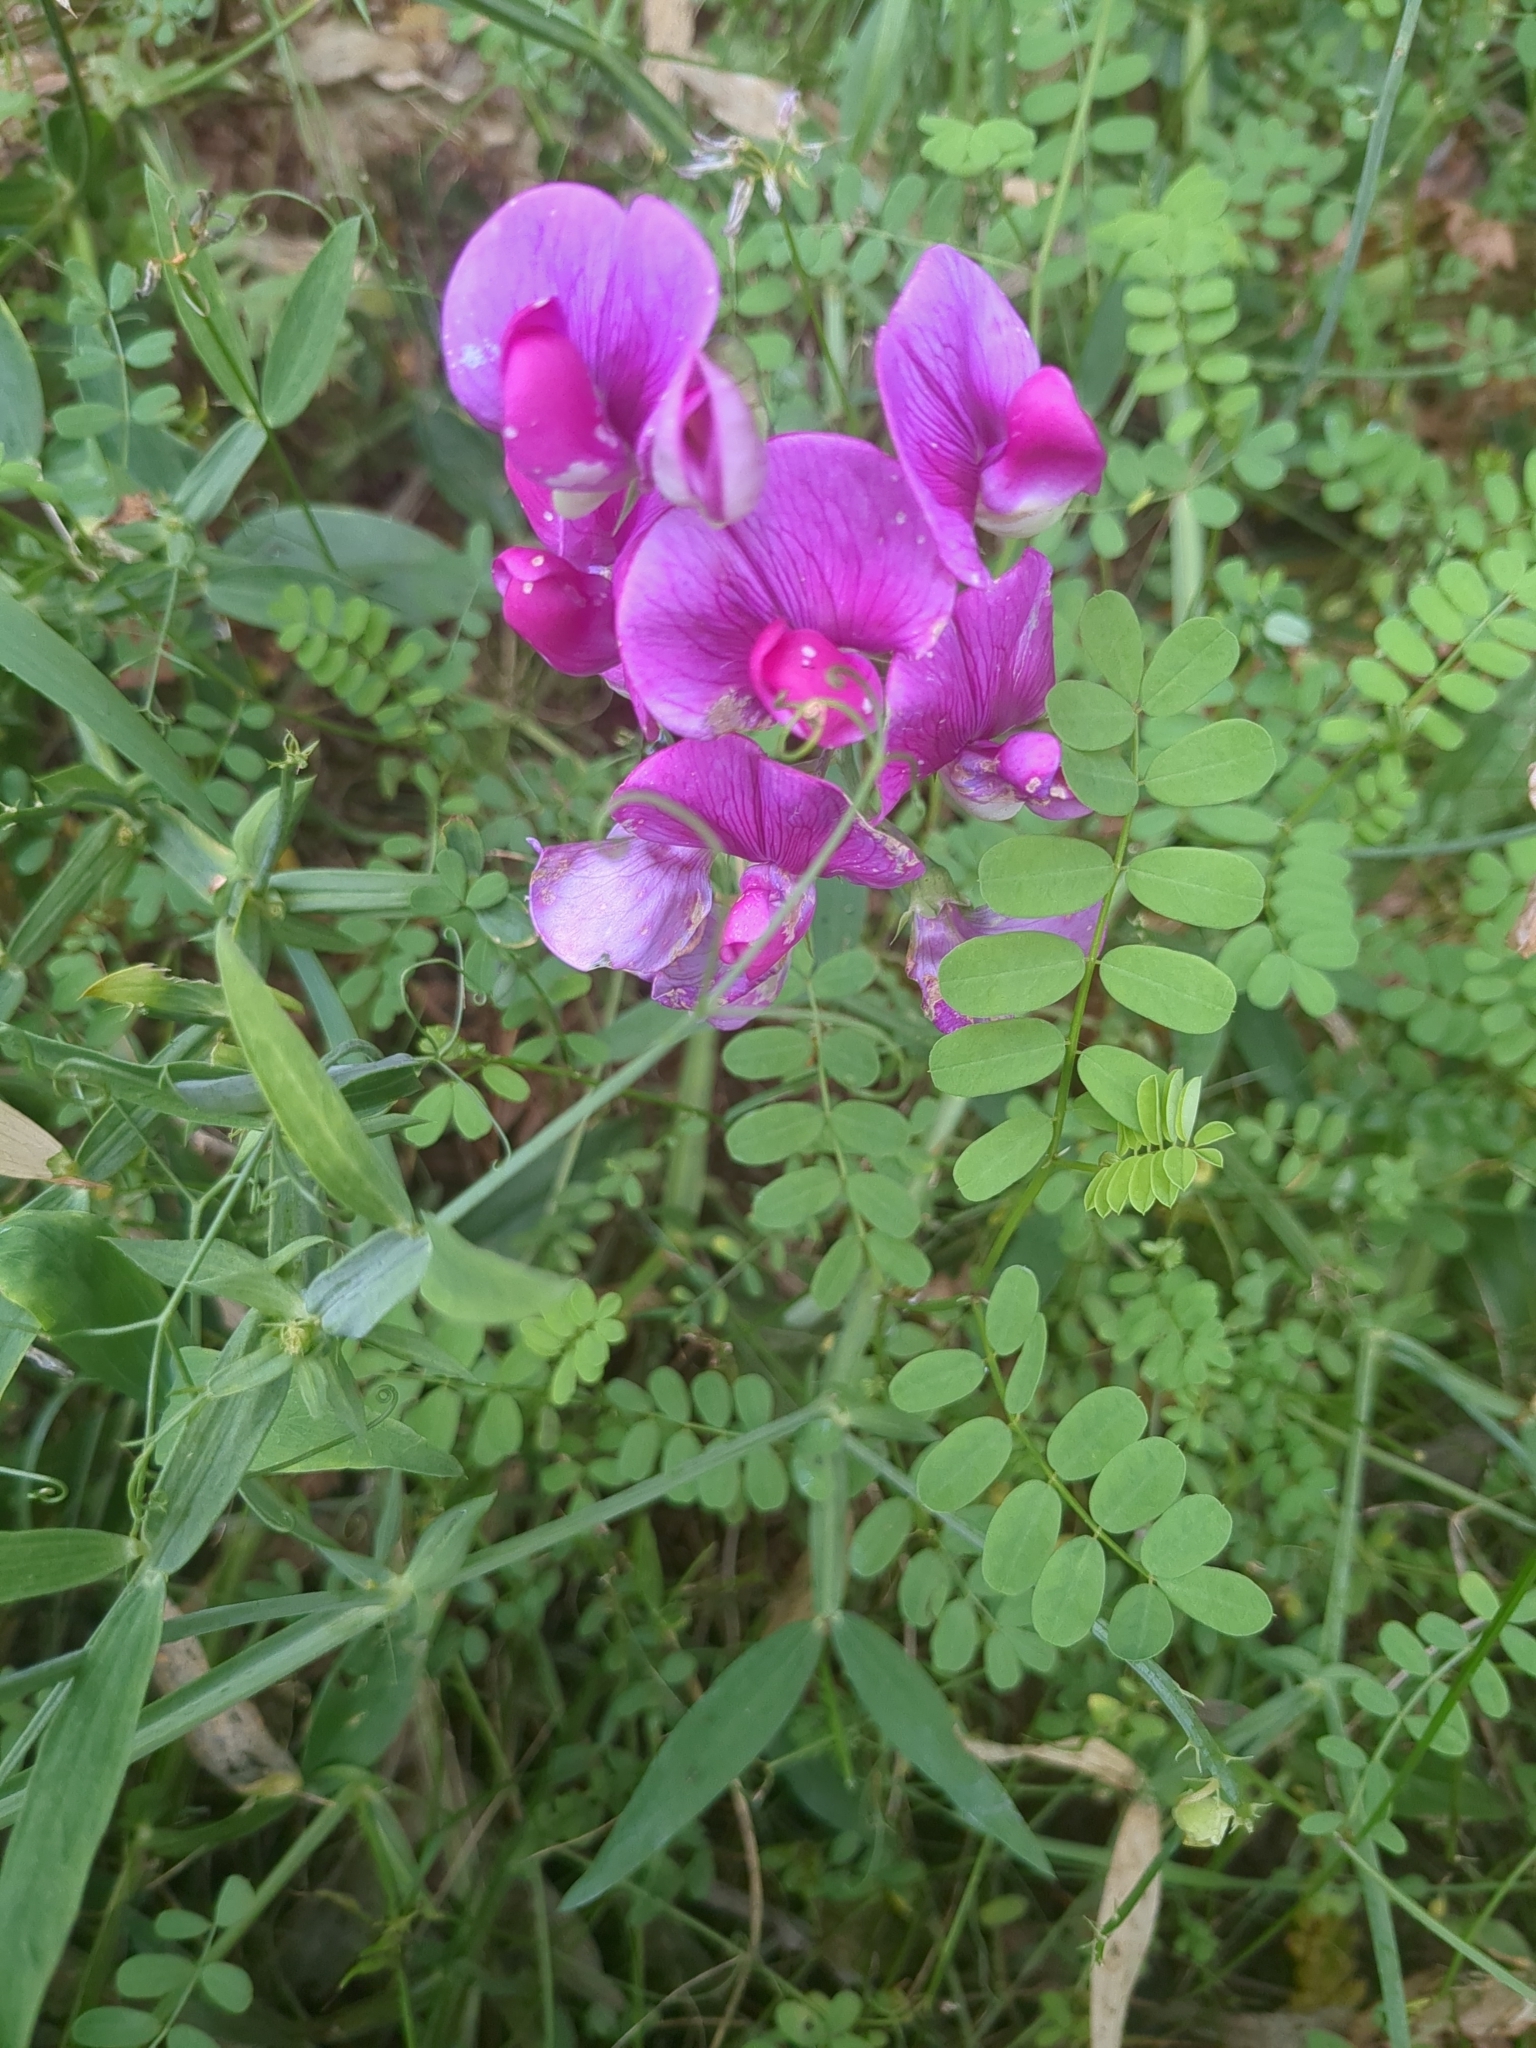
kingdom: Plantae
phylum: Tracheophyta
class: Magnoliopsida
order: Fabales
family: Fabaceae
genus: Lathyrus
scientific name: Lathyrus latifolius
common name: Perennial pea
